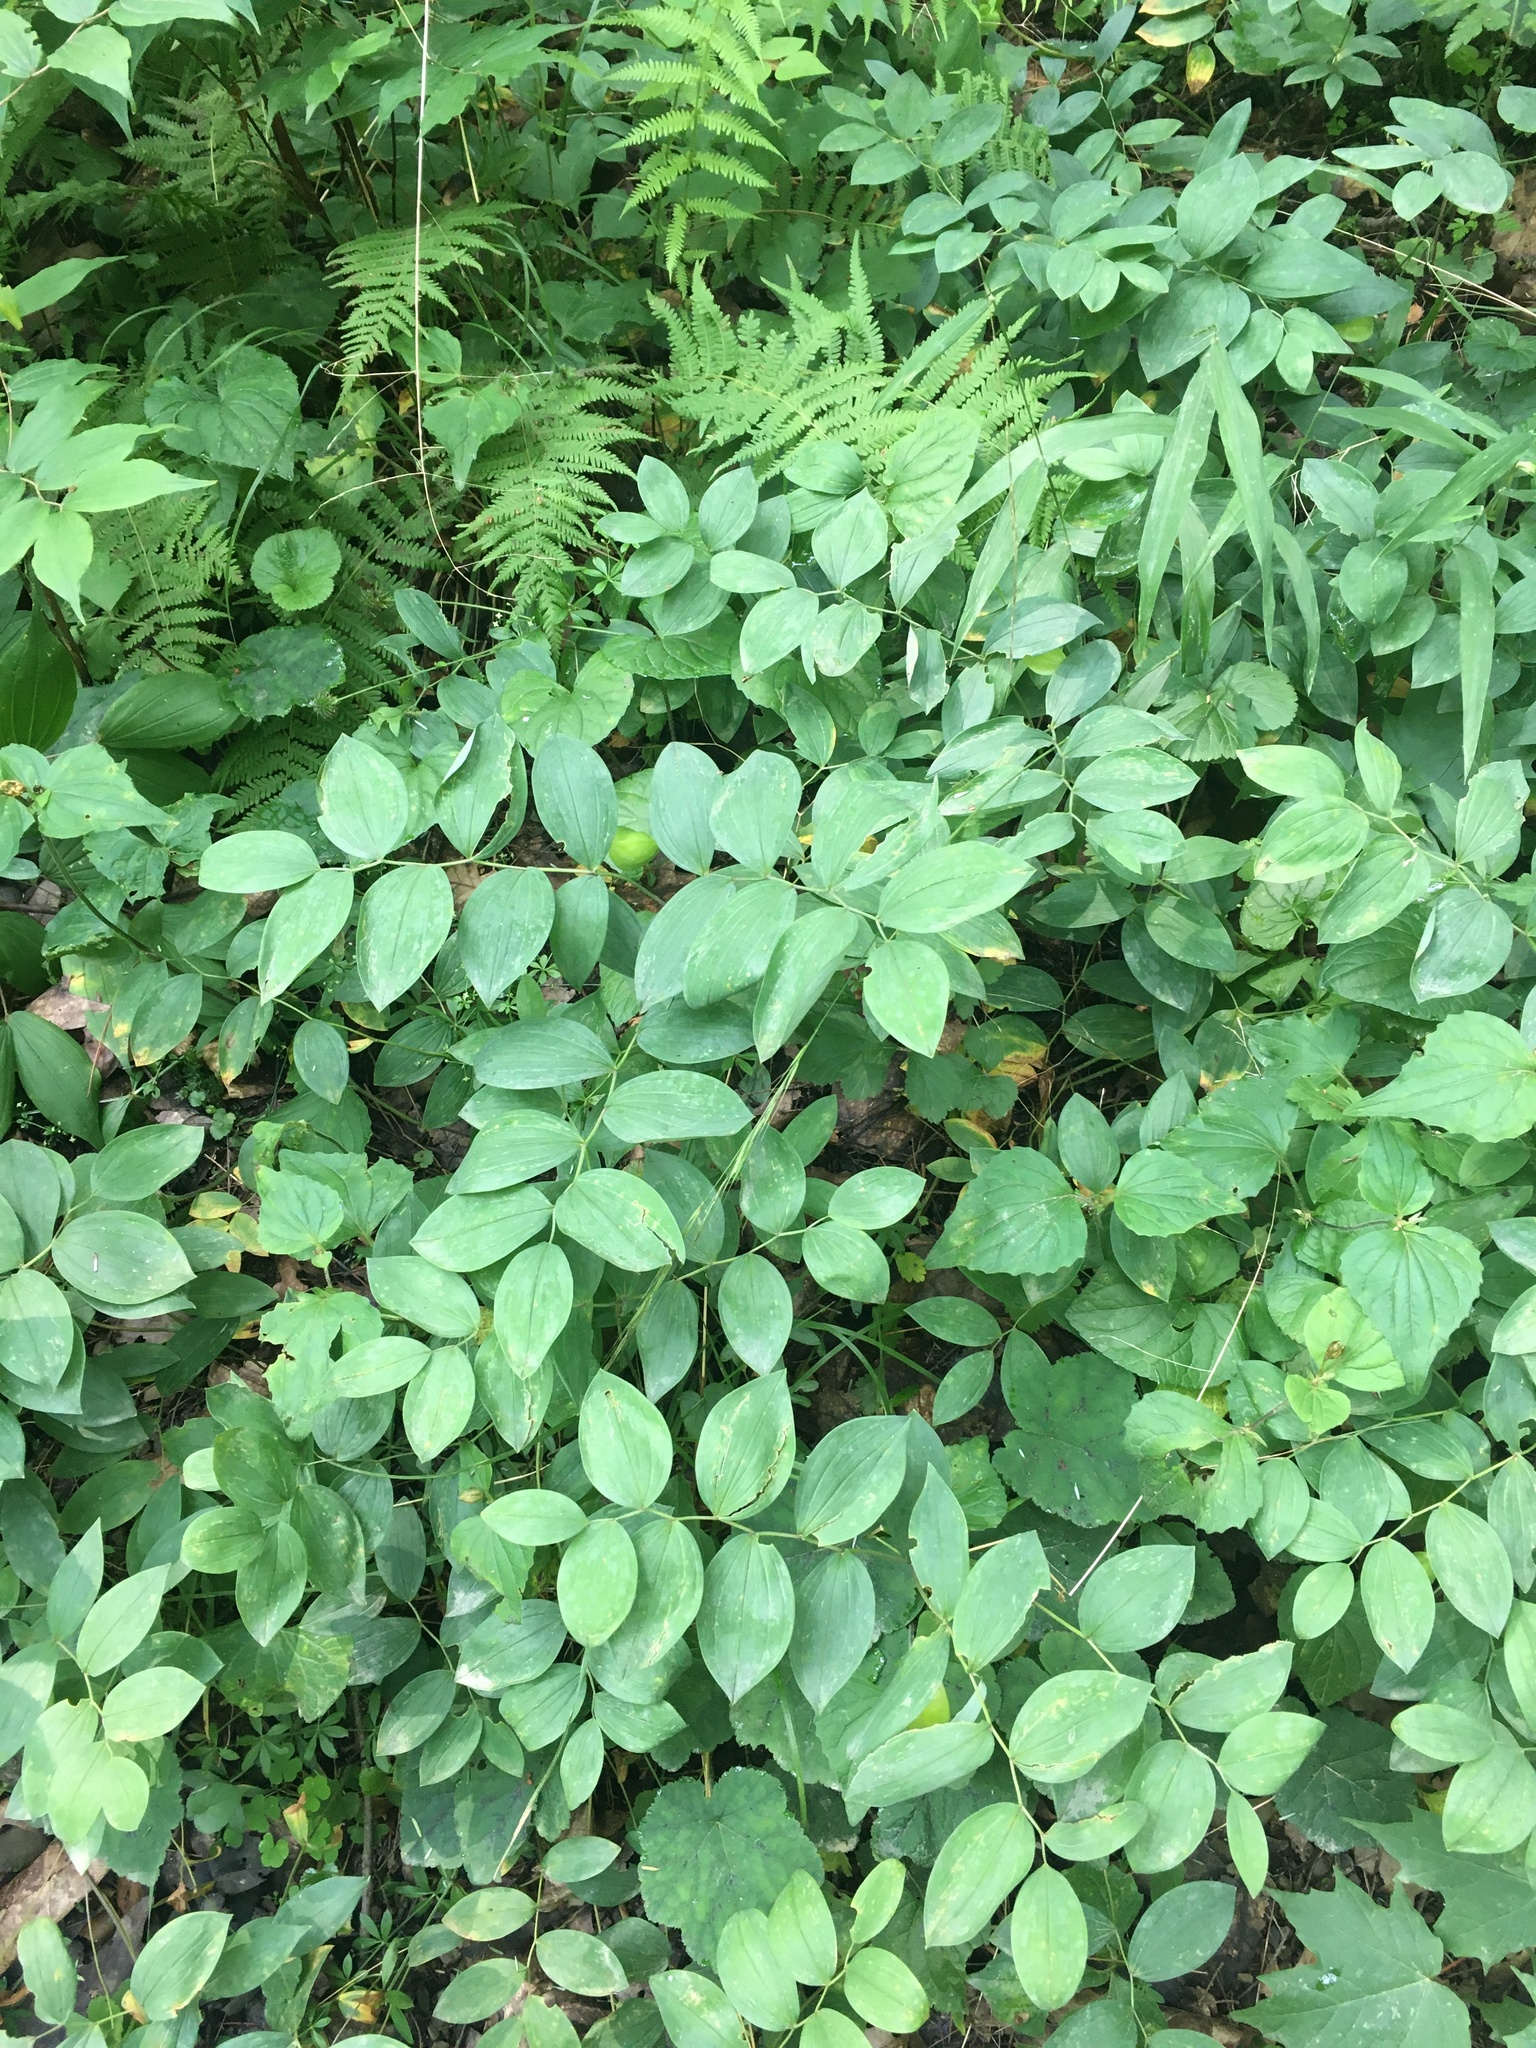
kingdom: Plantae
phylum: Tracheophyta
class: Liliopsida
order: Liliales
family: Colchicaceae
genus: Uvularia
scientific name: Uvularia sessilifolia
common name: Straw-lily
